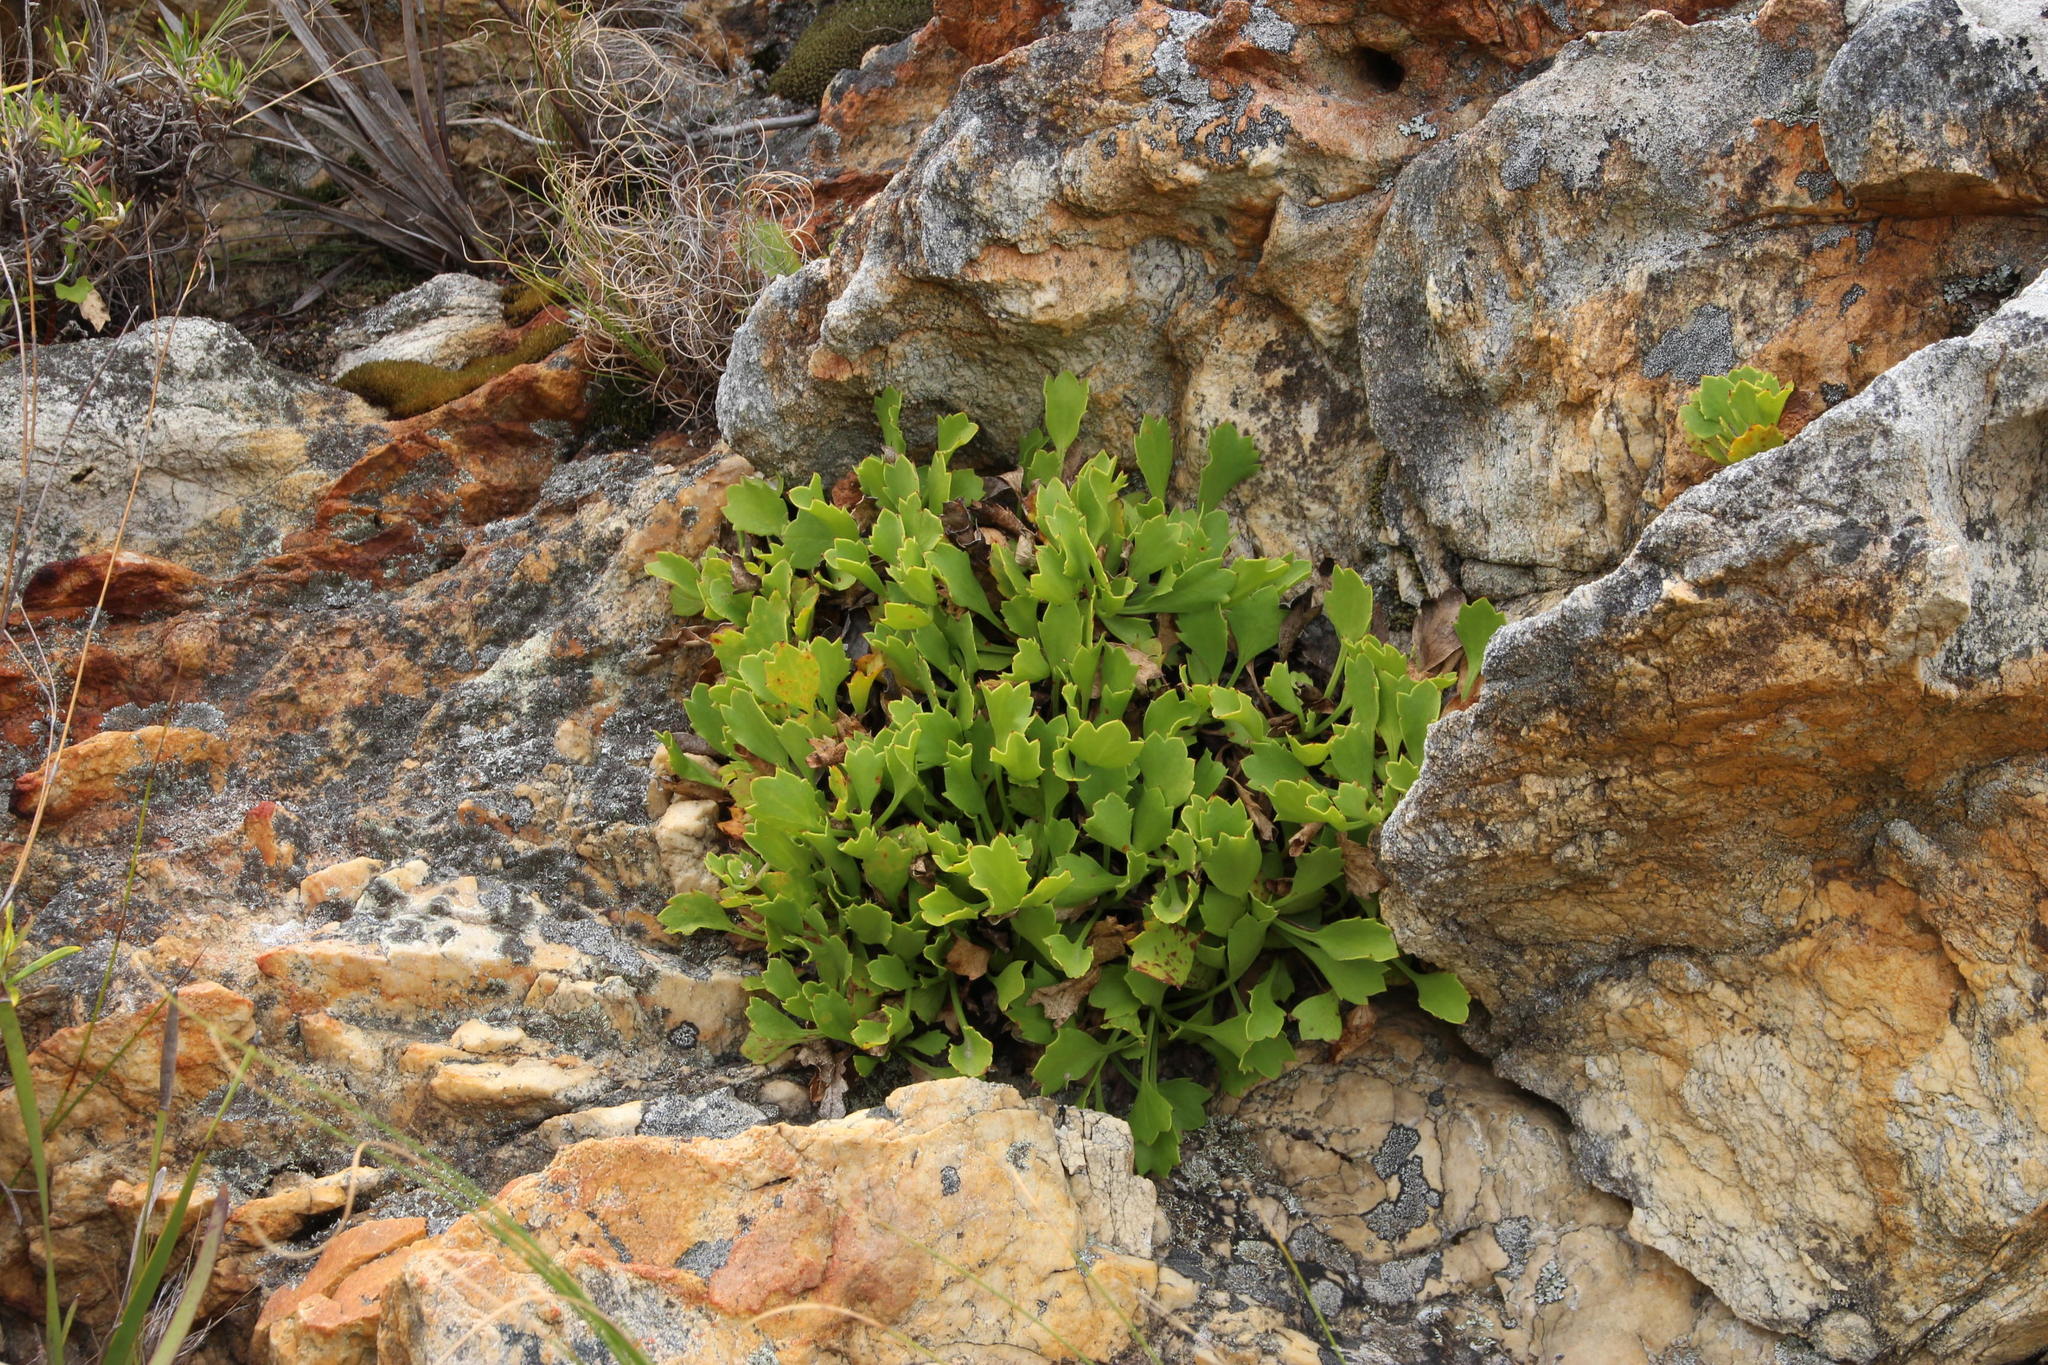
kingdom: Plantae
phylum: Tracheophyta
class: Magnoliopsida
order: Apiales
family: Apiaceae
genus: Centella
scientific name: Centella triloba
